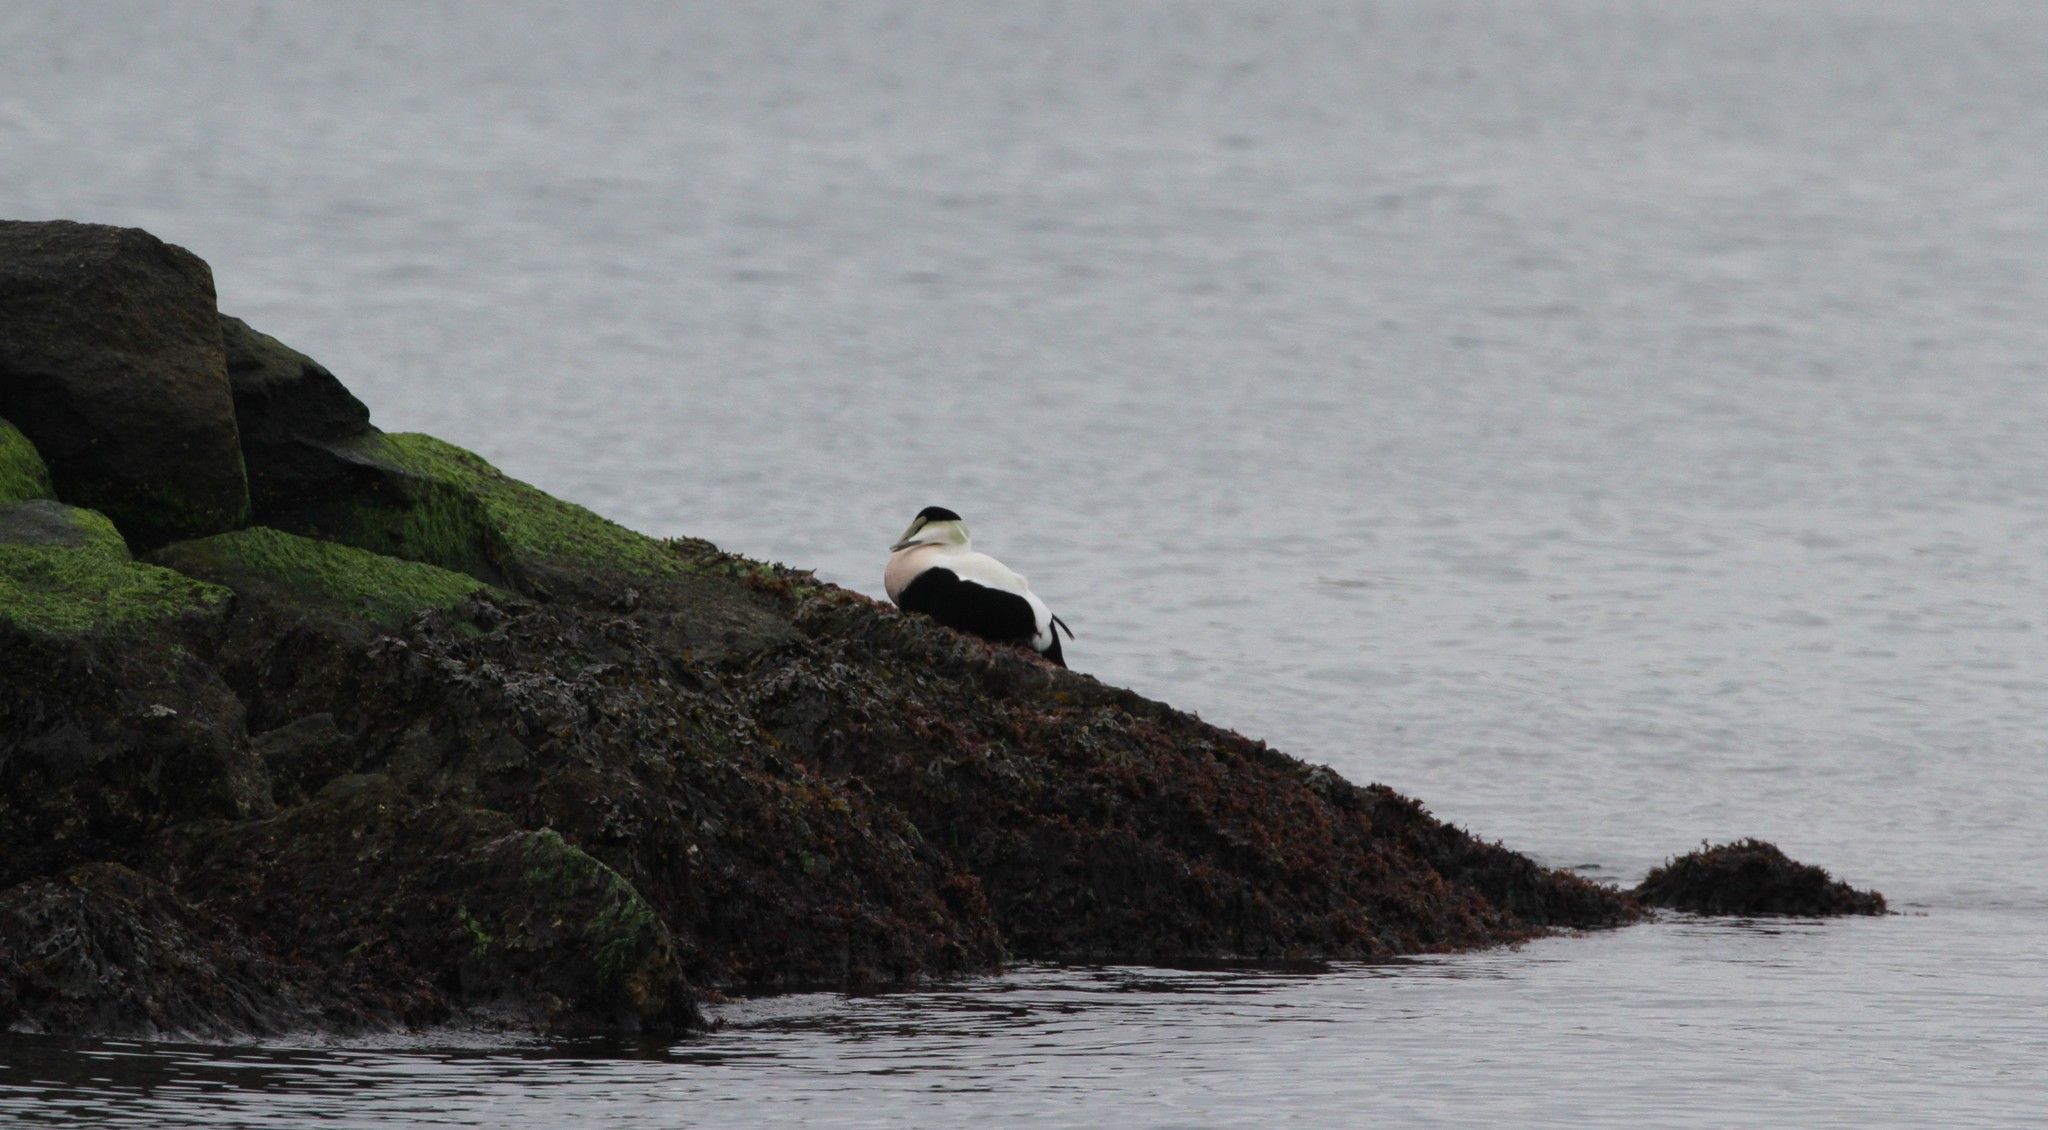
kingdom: Animalia
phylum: Chordata
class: Aves
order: Anseriformes
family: Anatidae
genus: Somateria
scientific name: Somateria mollissima
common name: Common eider
